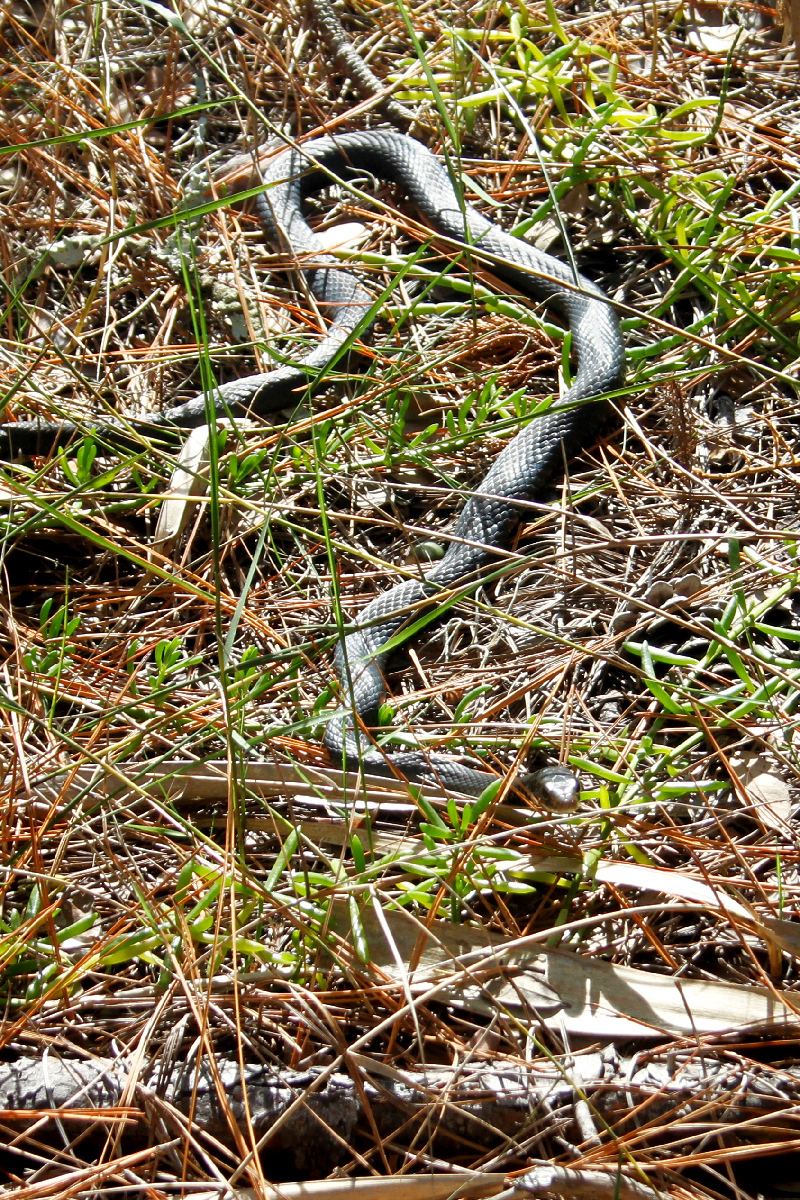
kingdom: Animalia
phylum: Chordata
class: Squamata
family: Colubridae
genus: Coluber
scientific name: Coluber constrictor
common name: Eastern racer
